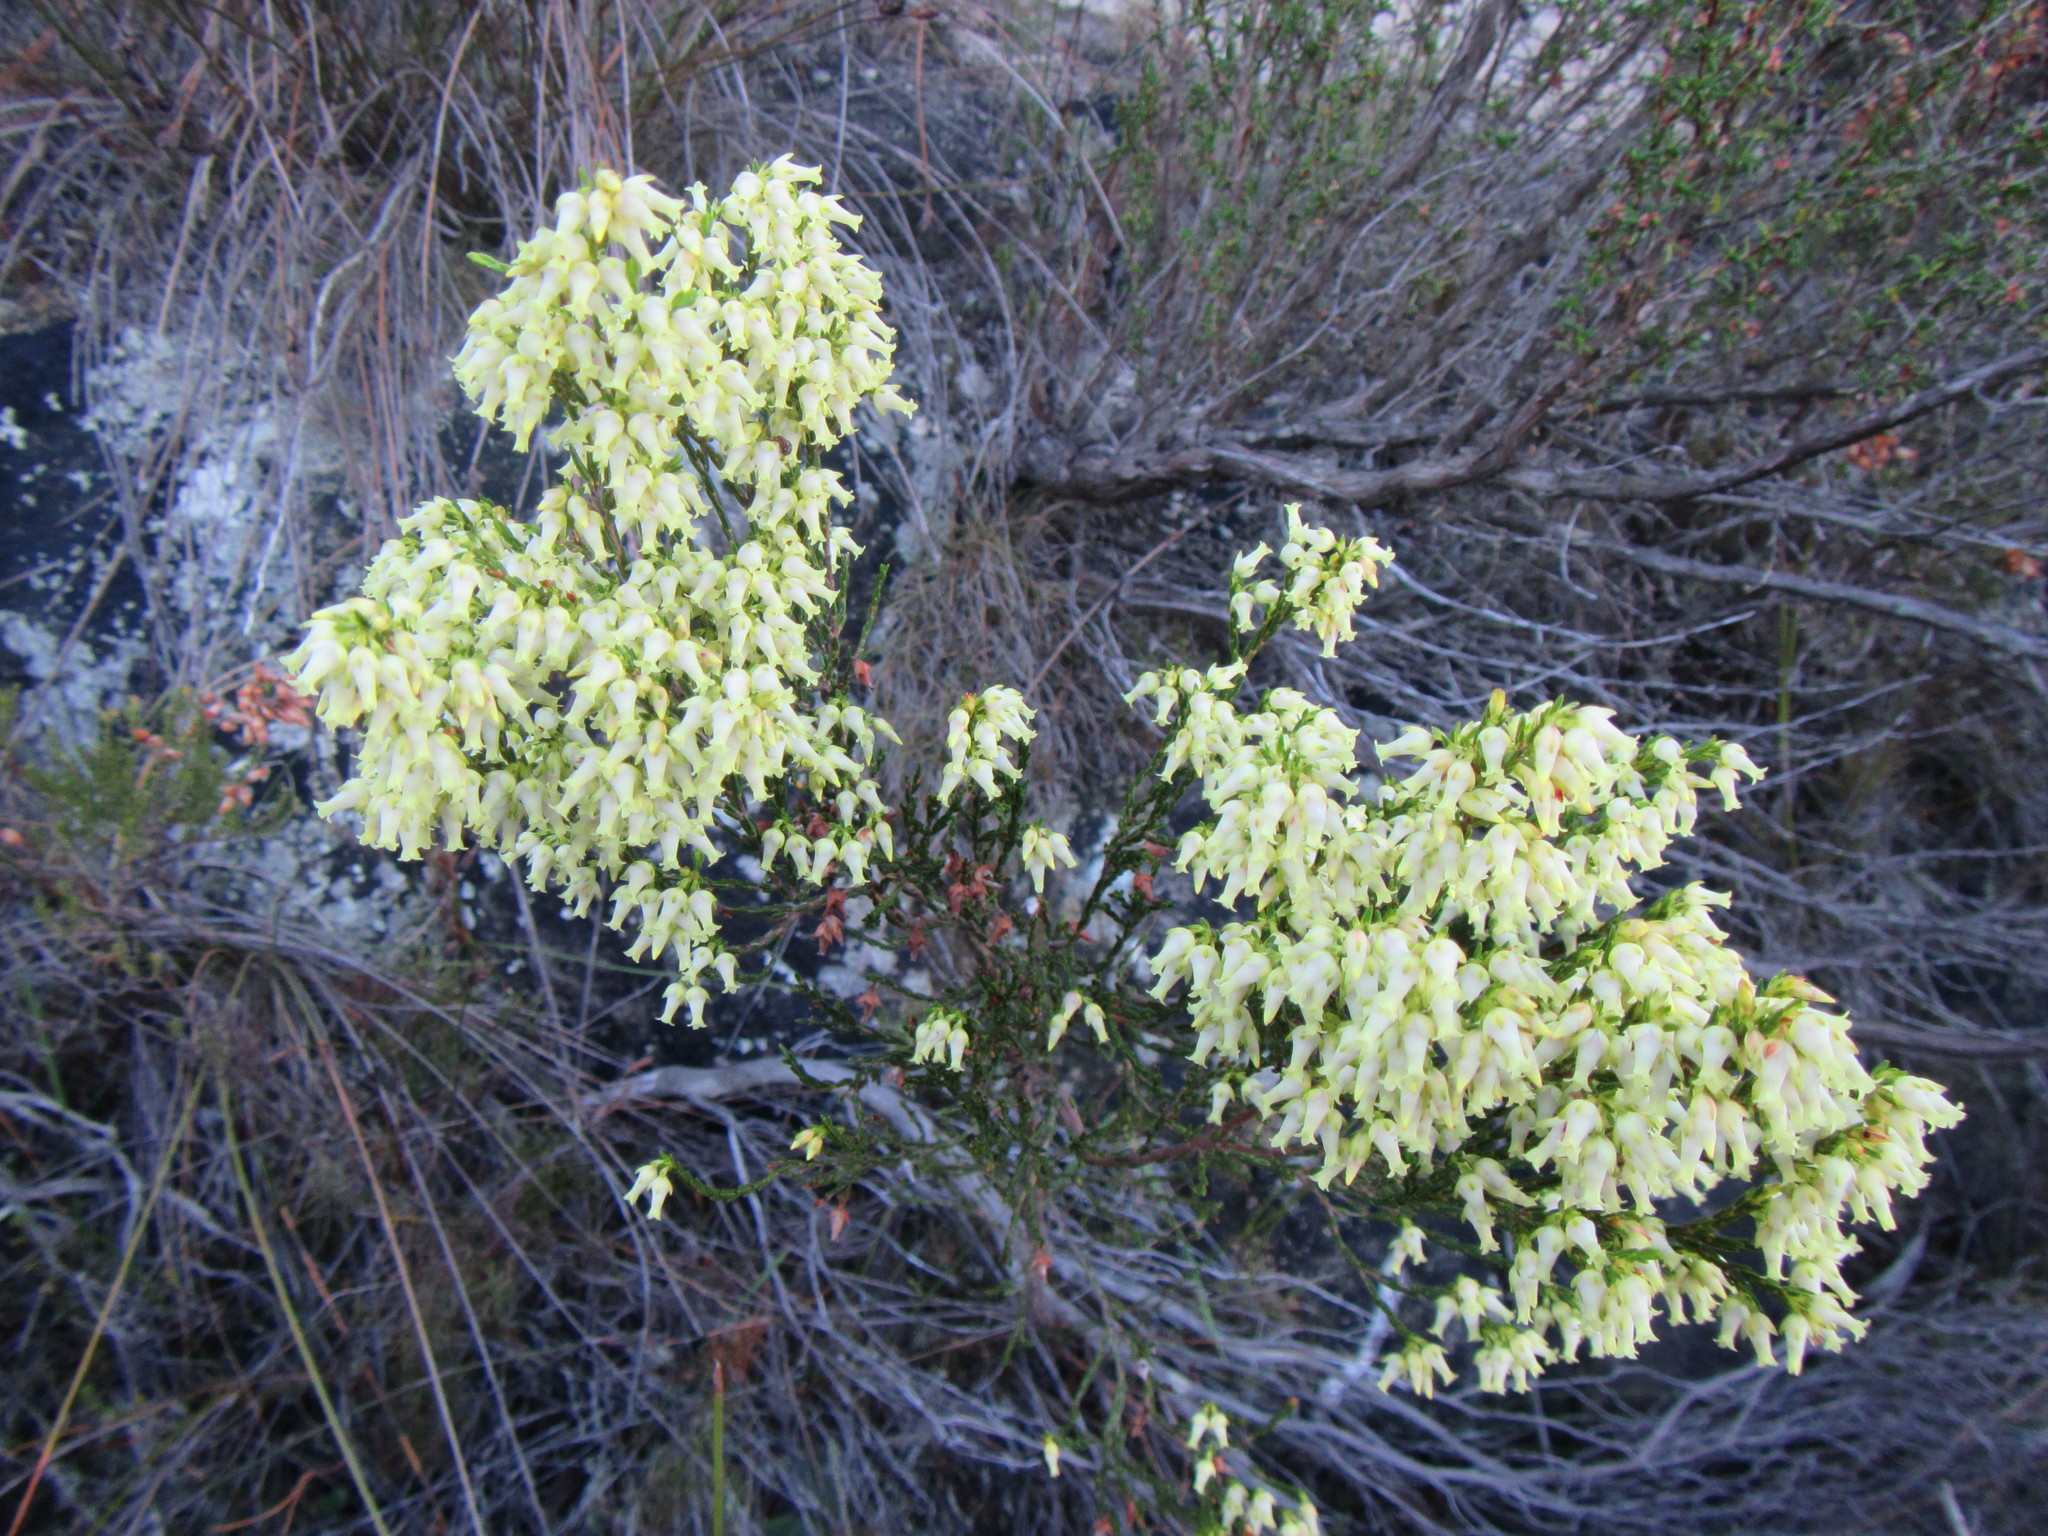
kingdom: Plantae
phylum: Tracheophyta
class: Magnoliopsida
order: Ericales
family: Ericaceae
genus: Erica
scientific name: Erica lutea
